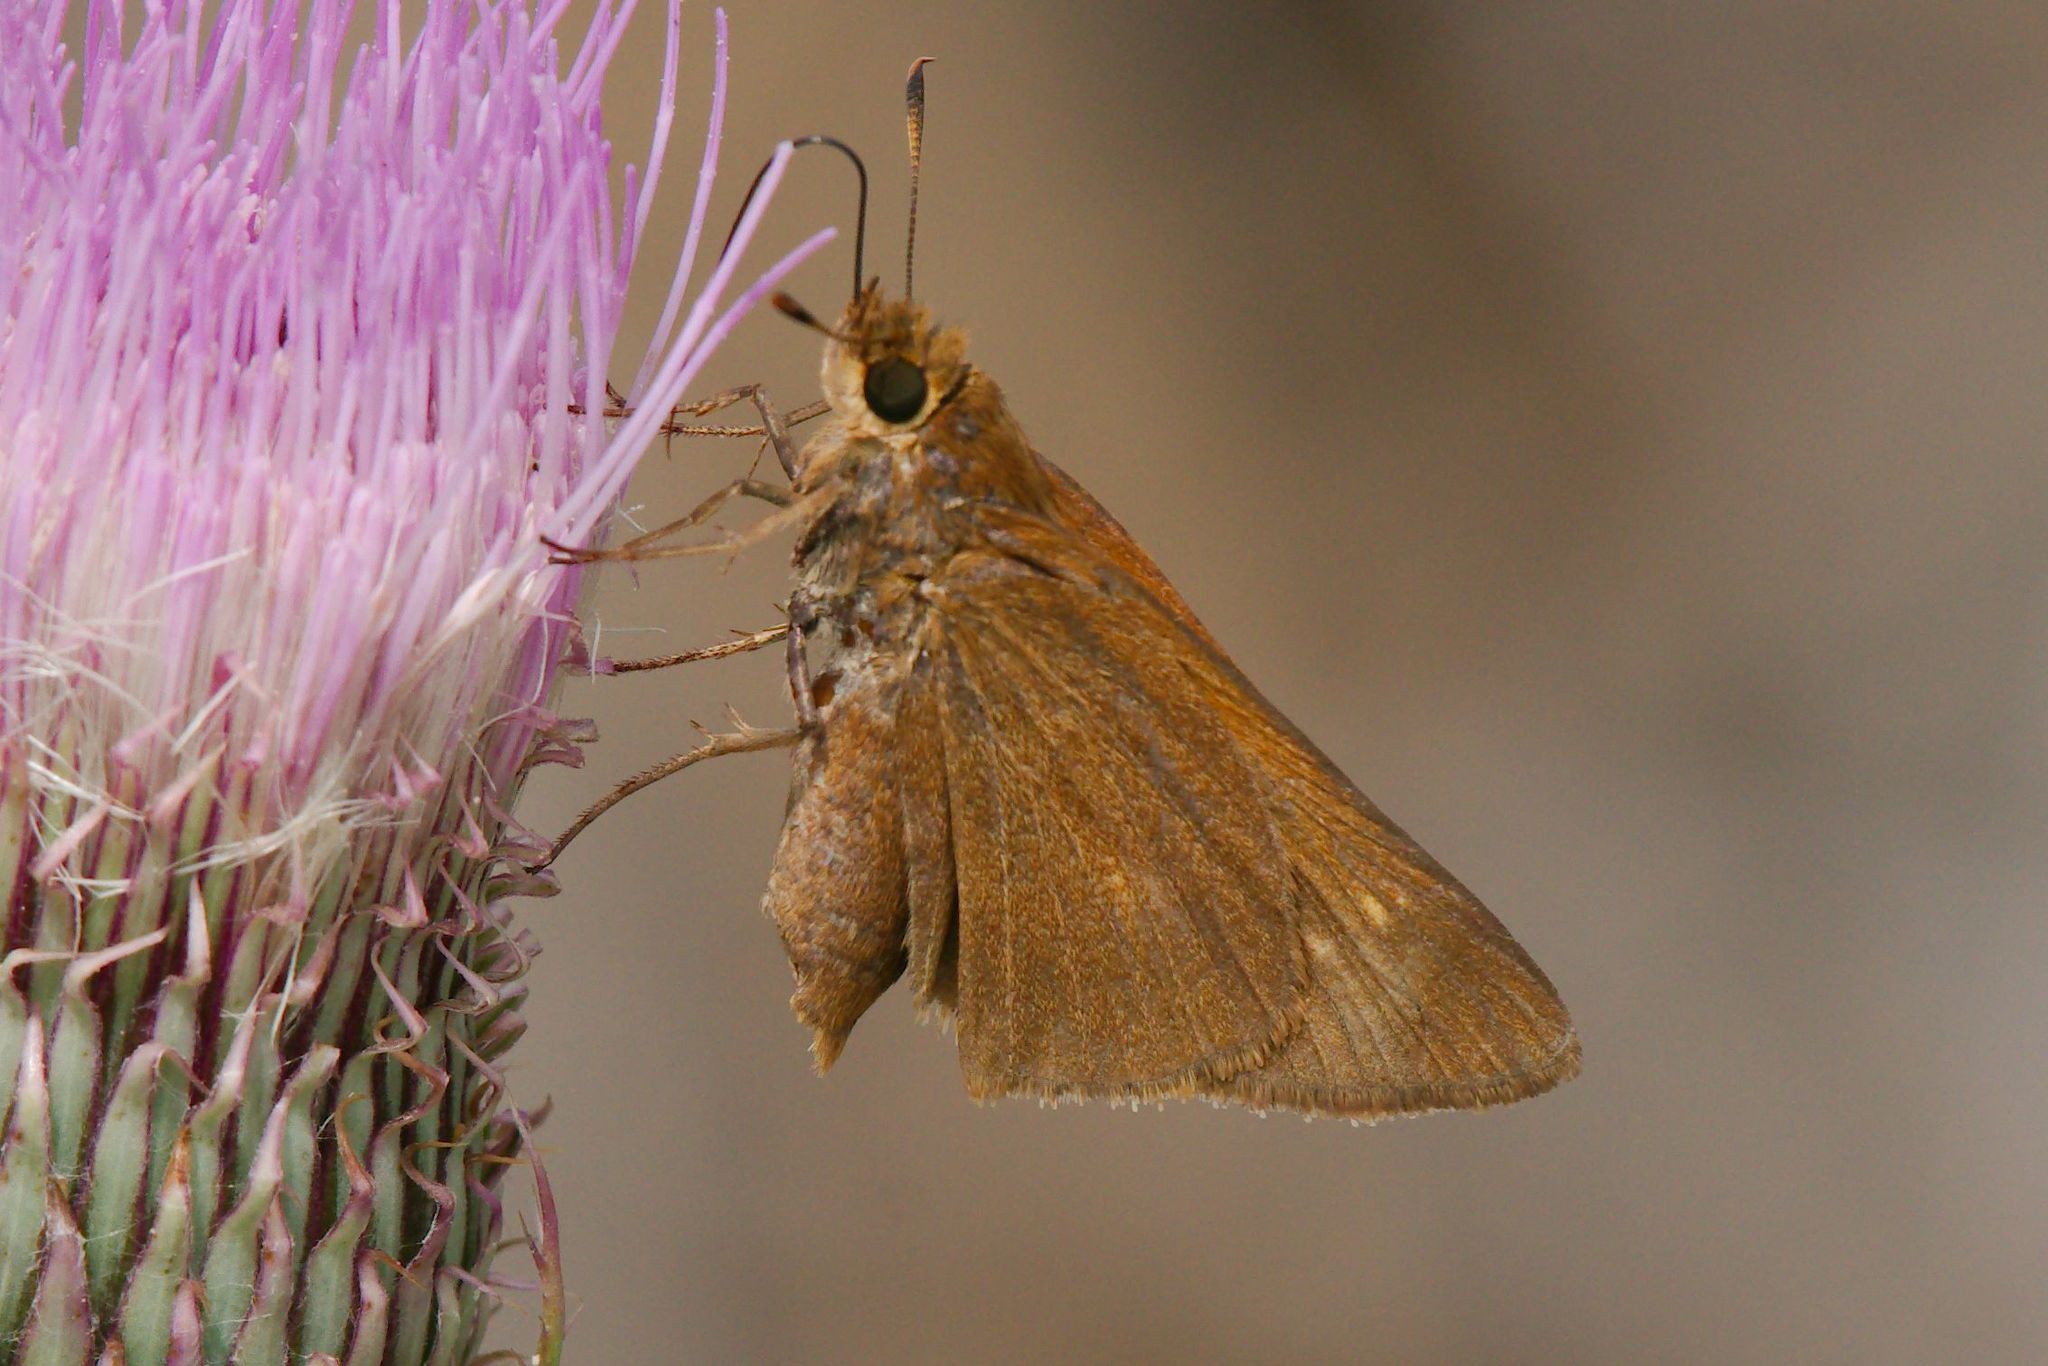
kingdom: Animalia
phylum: Arthropoda
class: Insecta
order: Lepidoptera
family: Hesperiidae
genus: Euphyes
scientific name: Euphyes pilatka
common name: Palatka skipper
